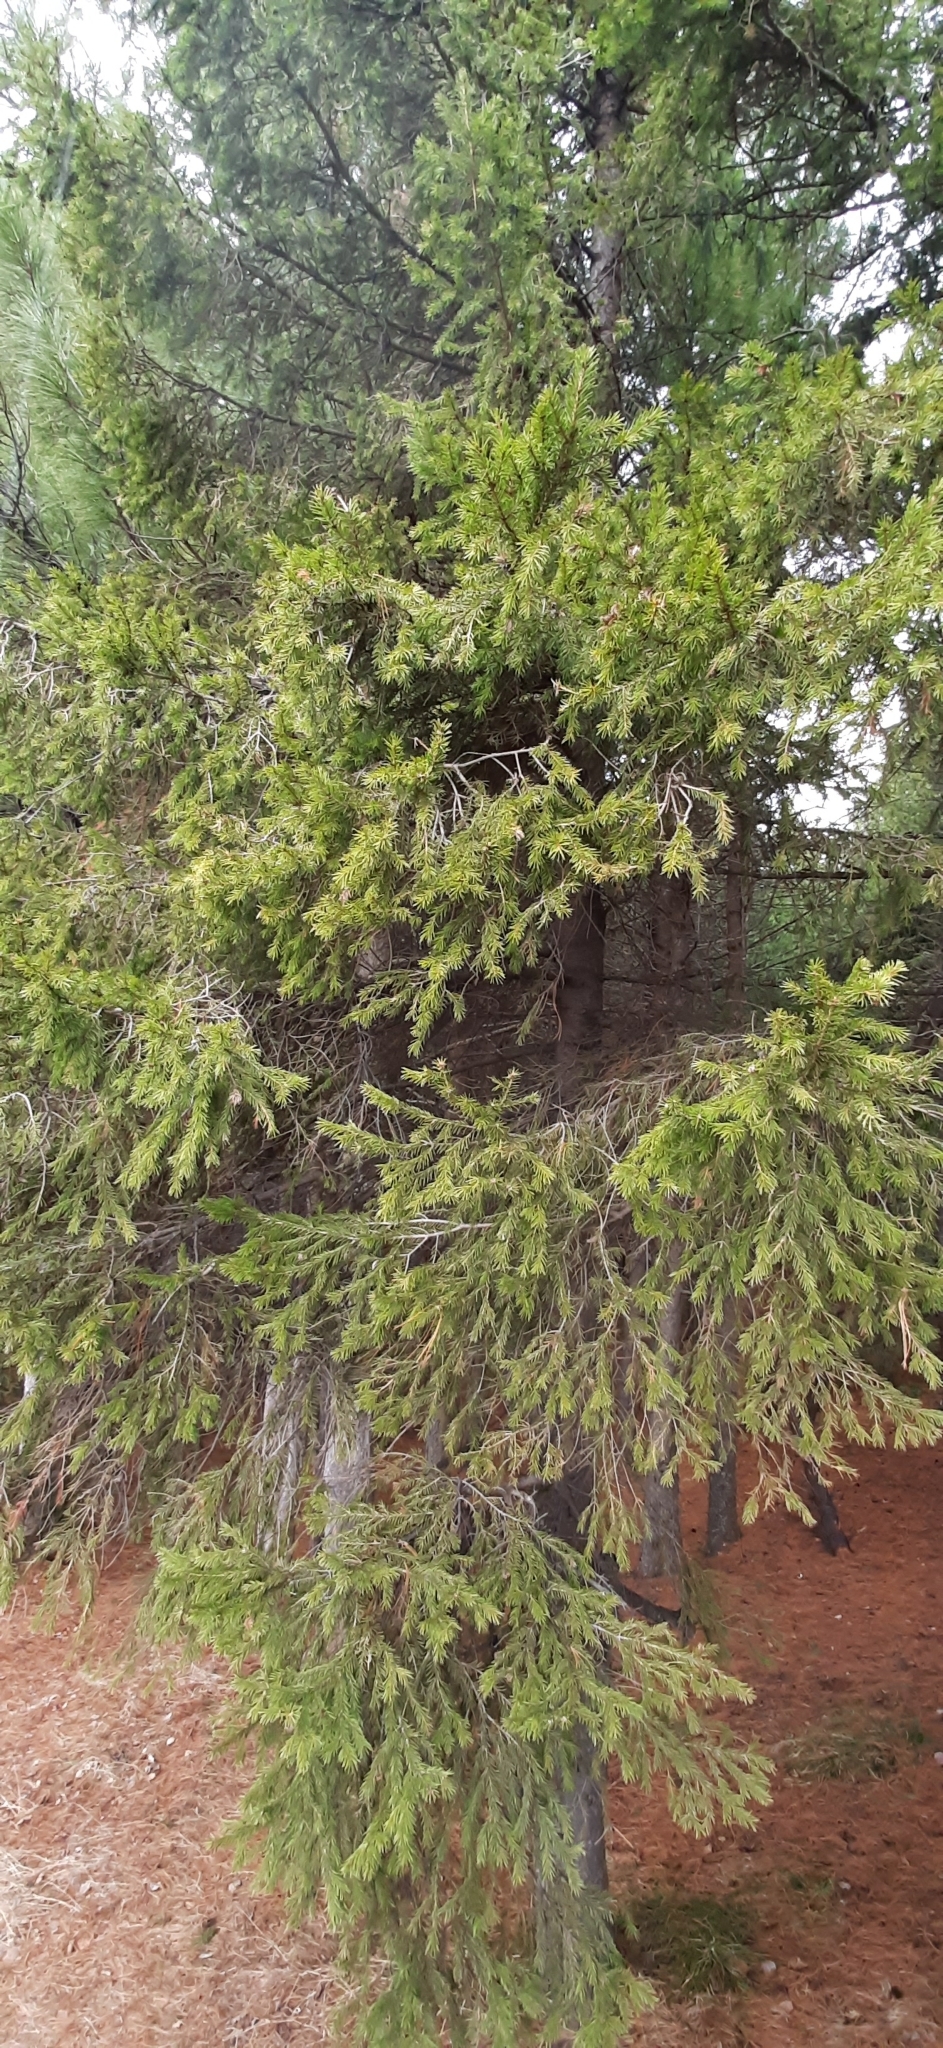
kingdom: Plantae
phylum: Tracheophyta
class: Pinopsida
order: Pinales
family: Pinaceae
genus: Picea
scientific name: Picea obovata
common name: Siberian spruce
